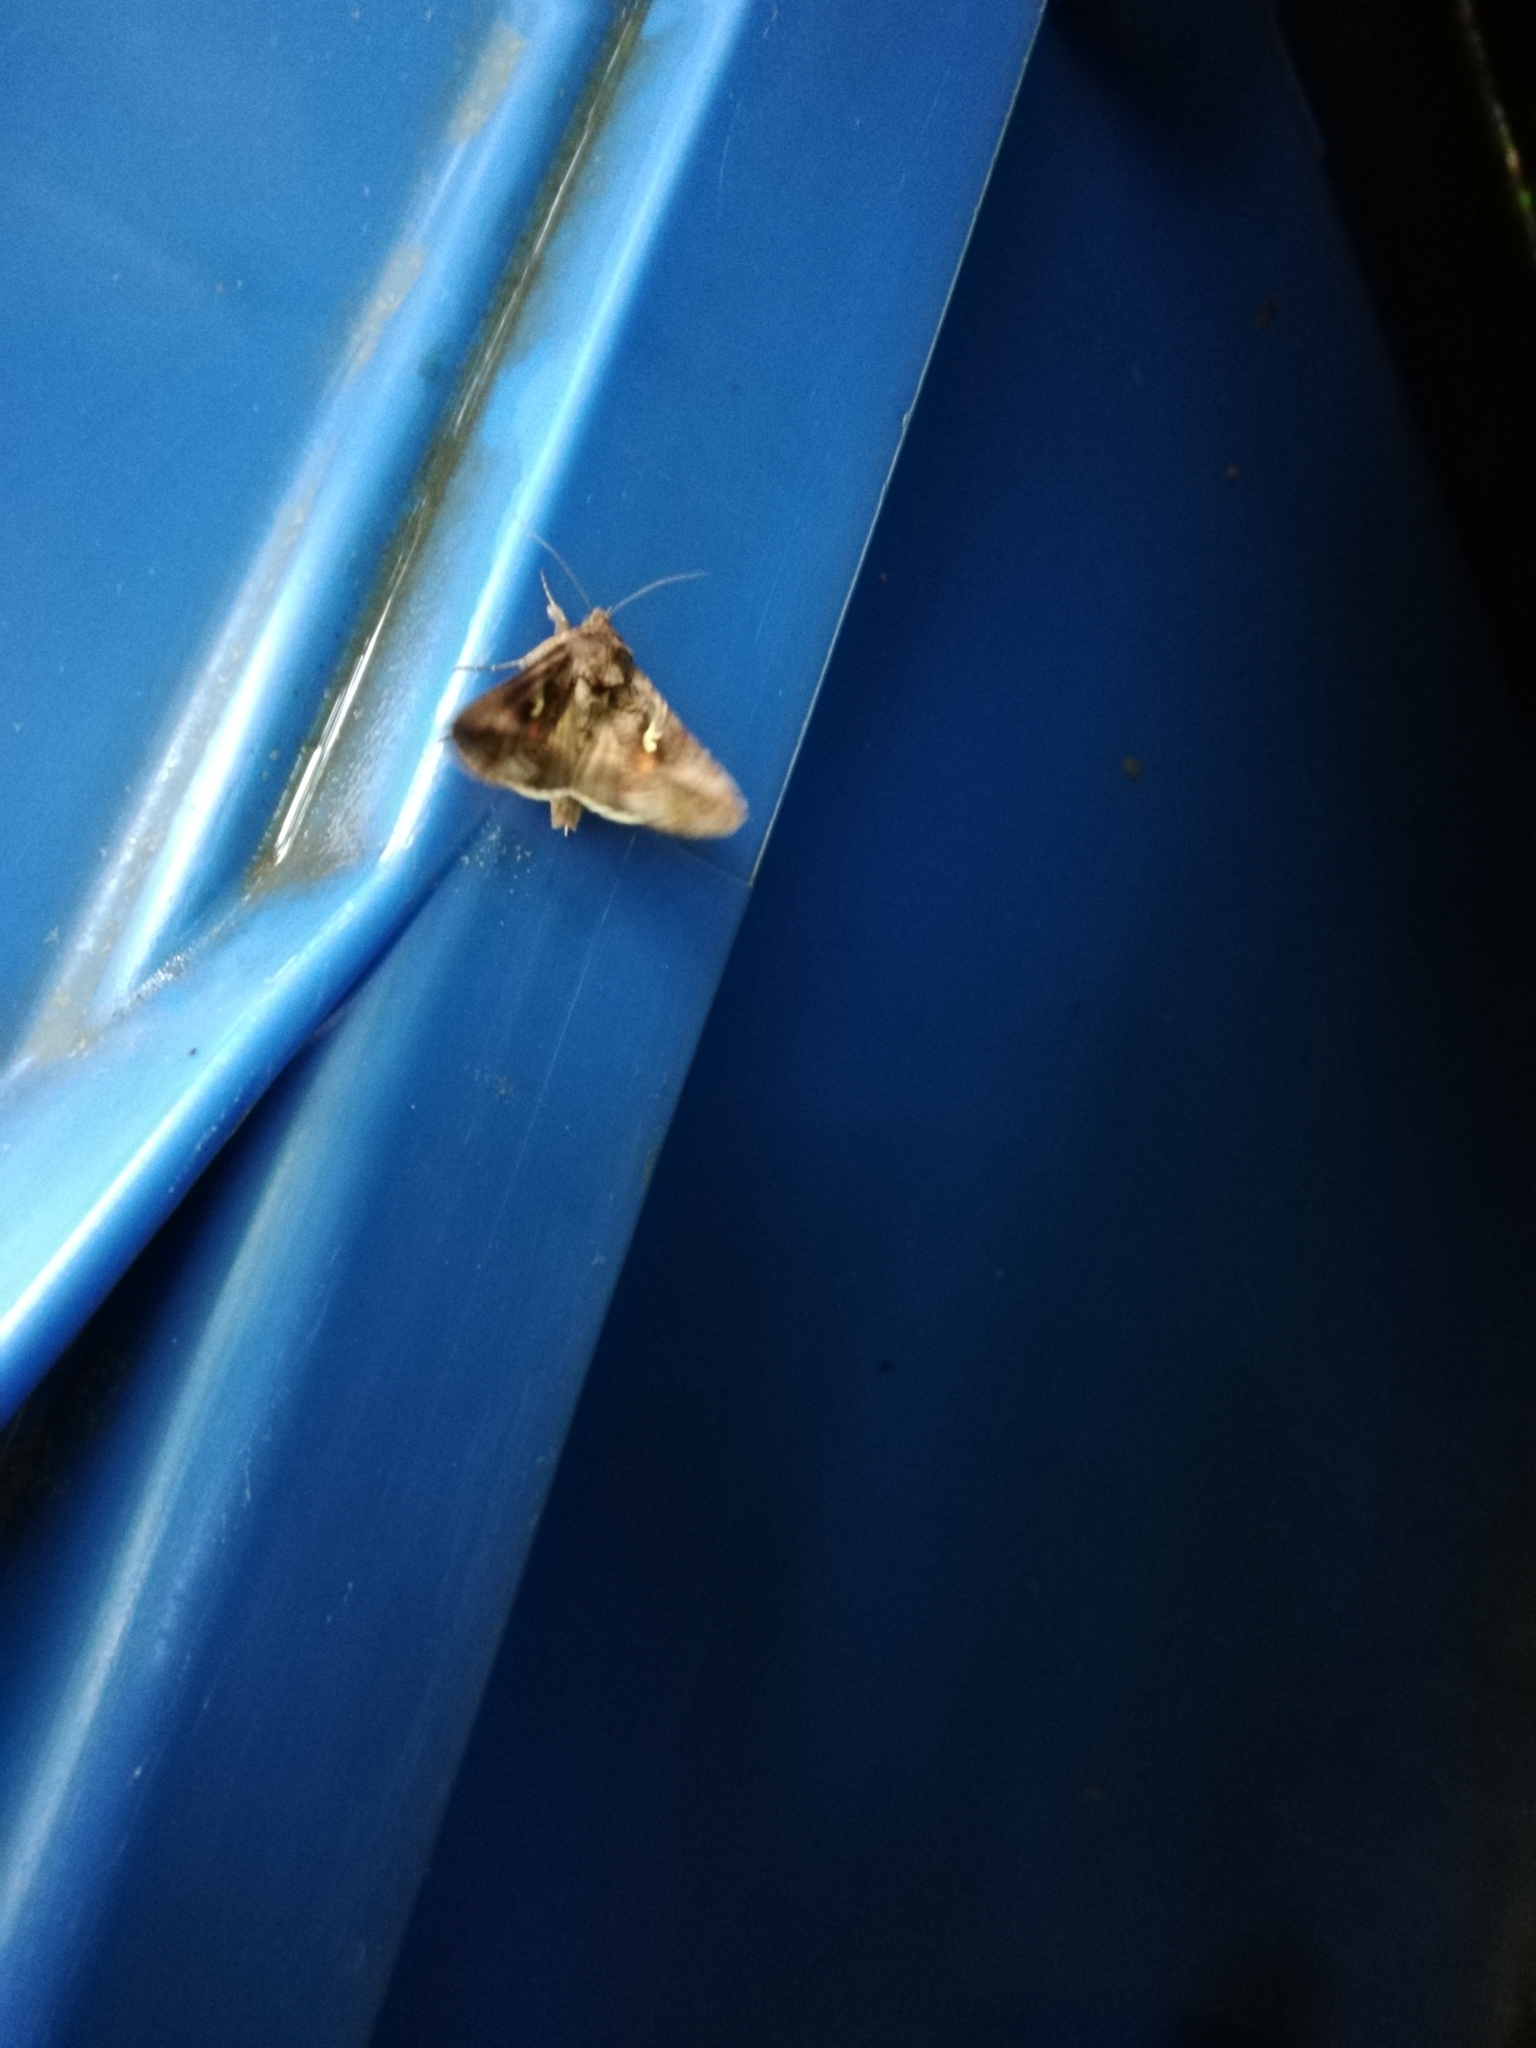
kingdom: Animalia
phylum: Arthropoda
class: Insecta
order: Lepidoptera
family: Noctuidae
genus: Autographa
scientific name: Autographa gamma
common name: Silver y
